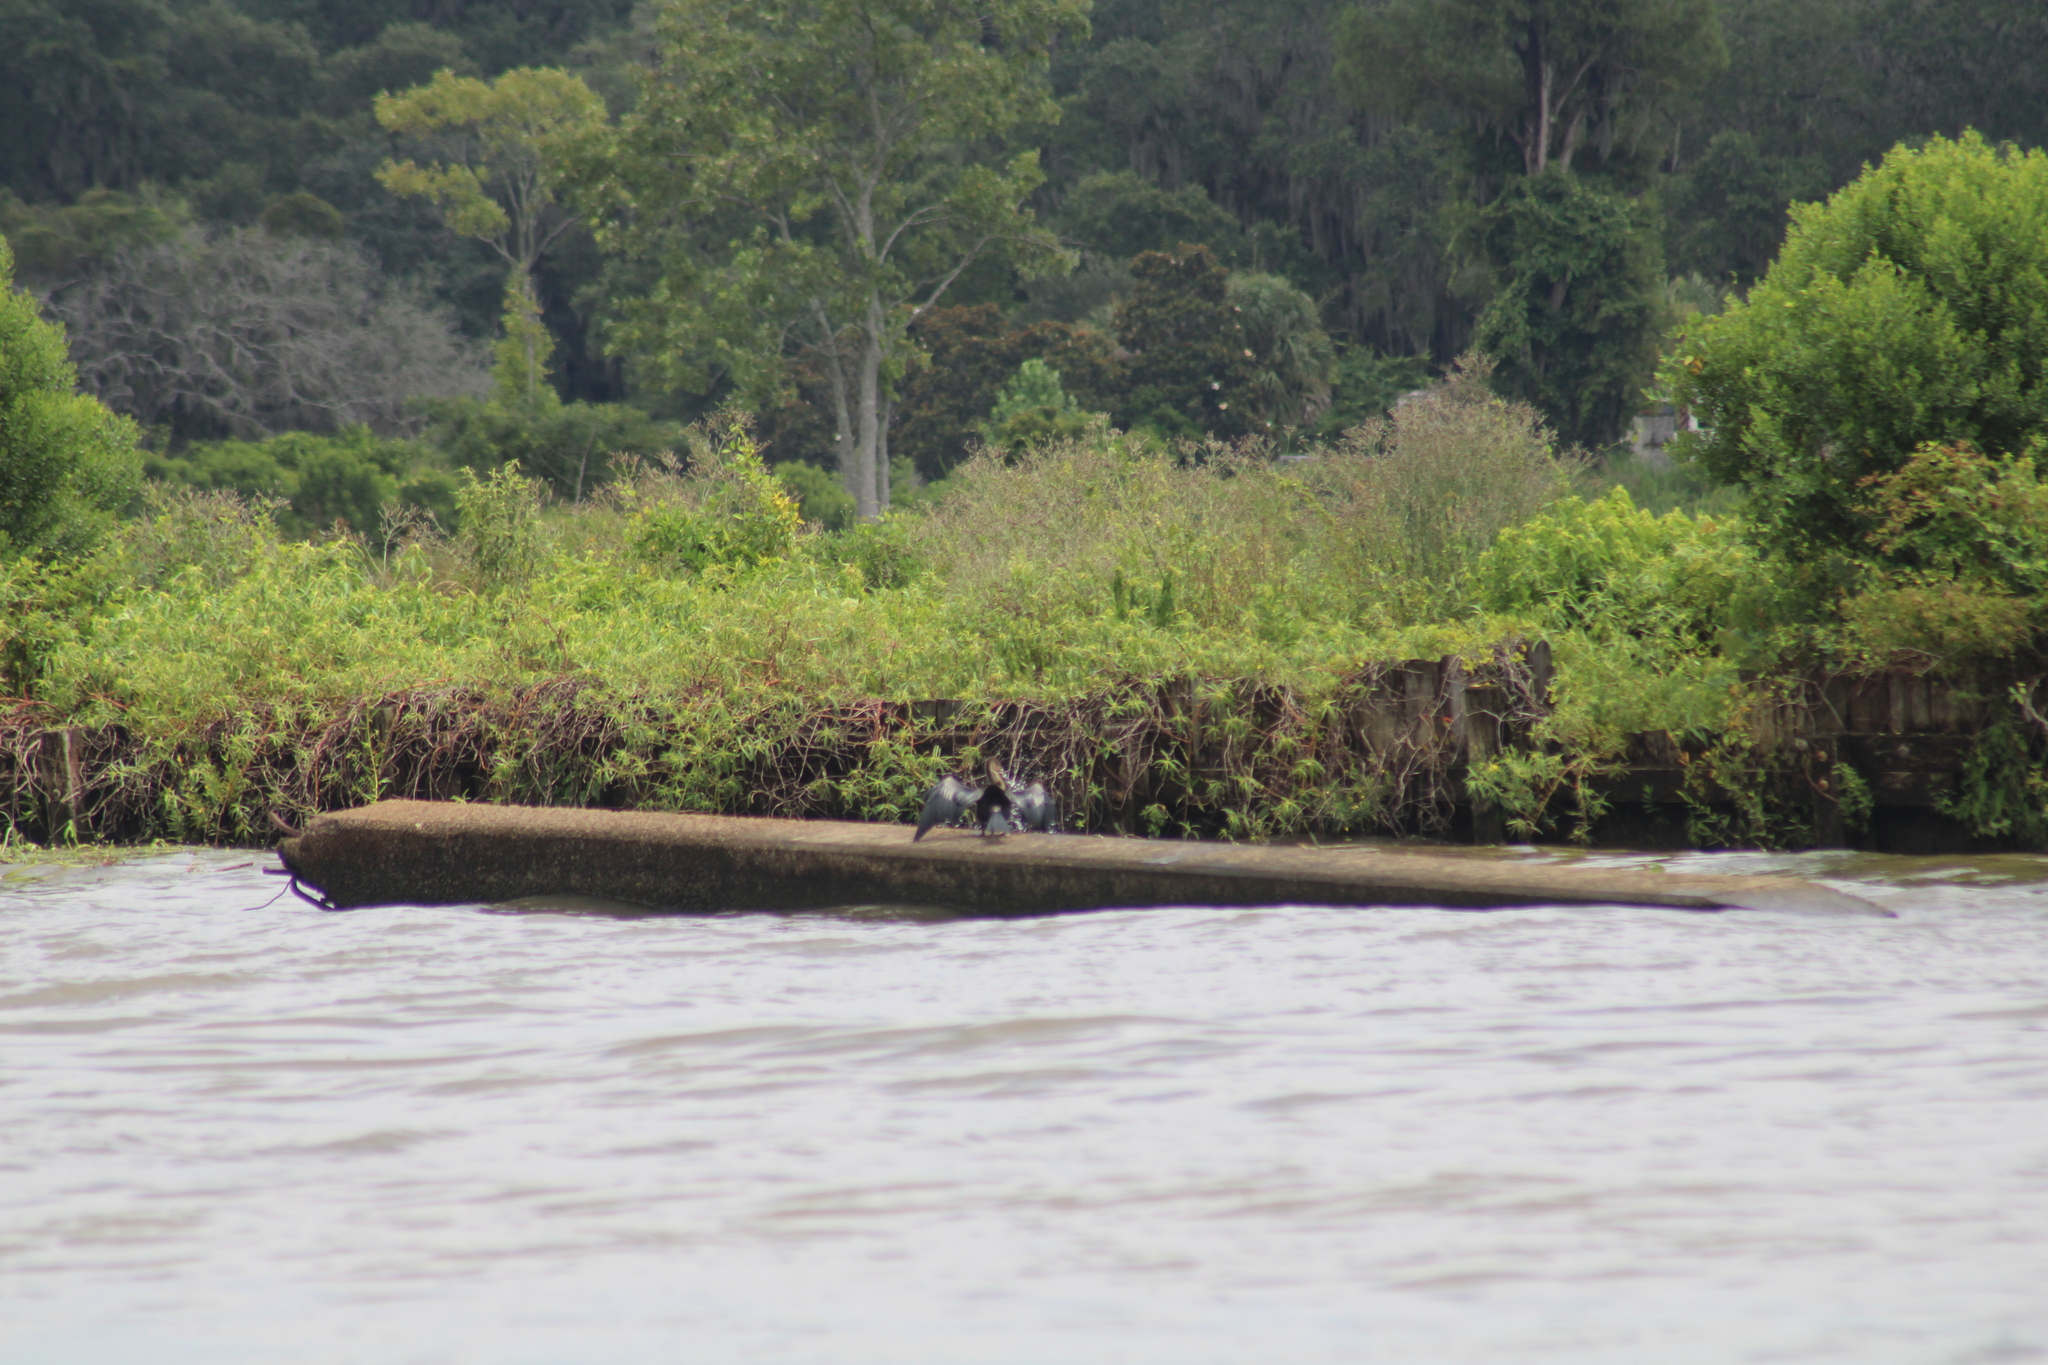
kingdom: Animalia
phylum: Chordata
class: Aves
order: Suliformes
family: Anhingidae
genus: Anhinga
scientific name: Anhinga anhinga
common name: Anhinga
